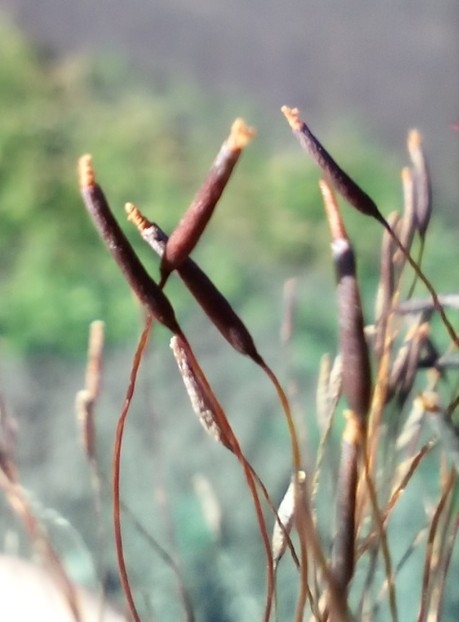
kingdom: Plantae
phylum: Bryophyta
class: Bryopsida
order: Pottiales
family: Pottiaceae
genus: Tortula
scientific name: Tortula muralis
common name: Wall screw-moss
